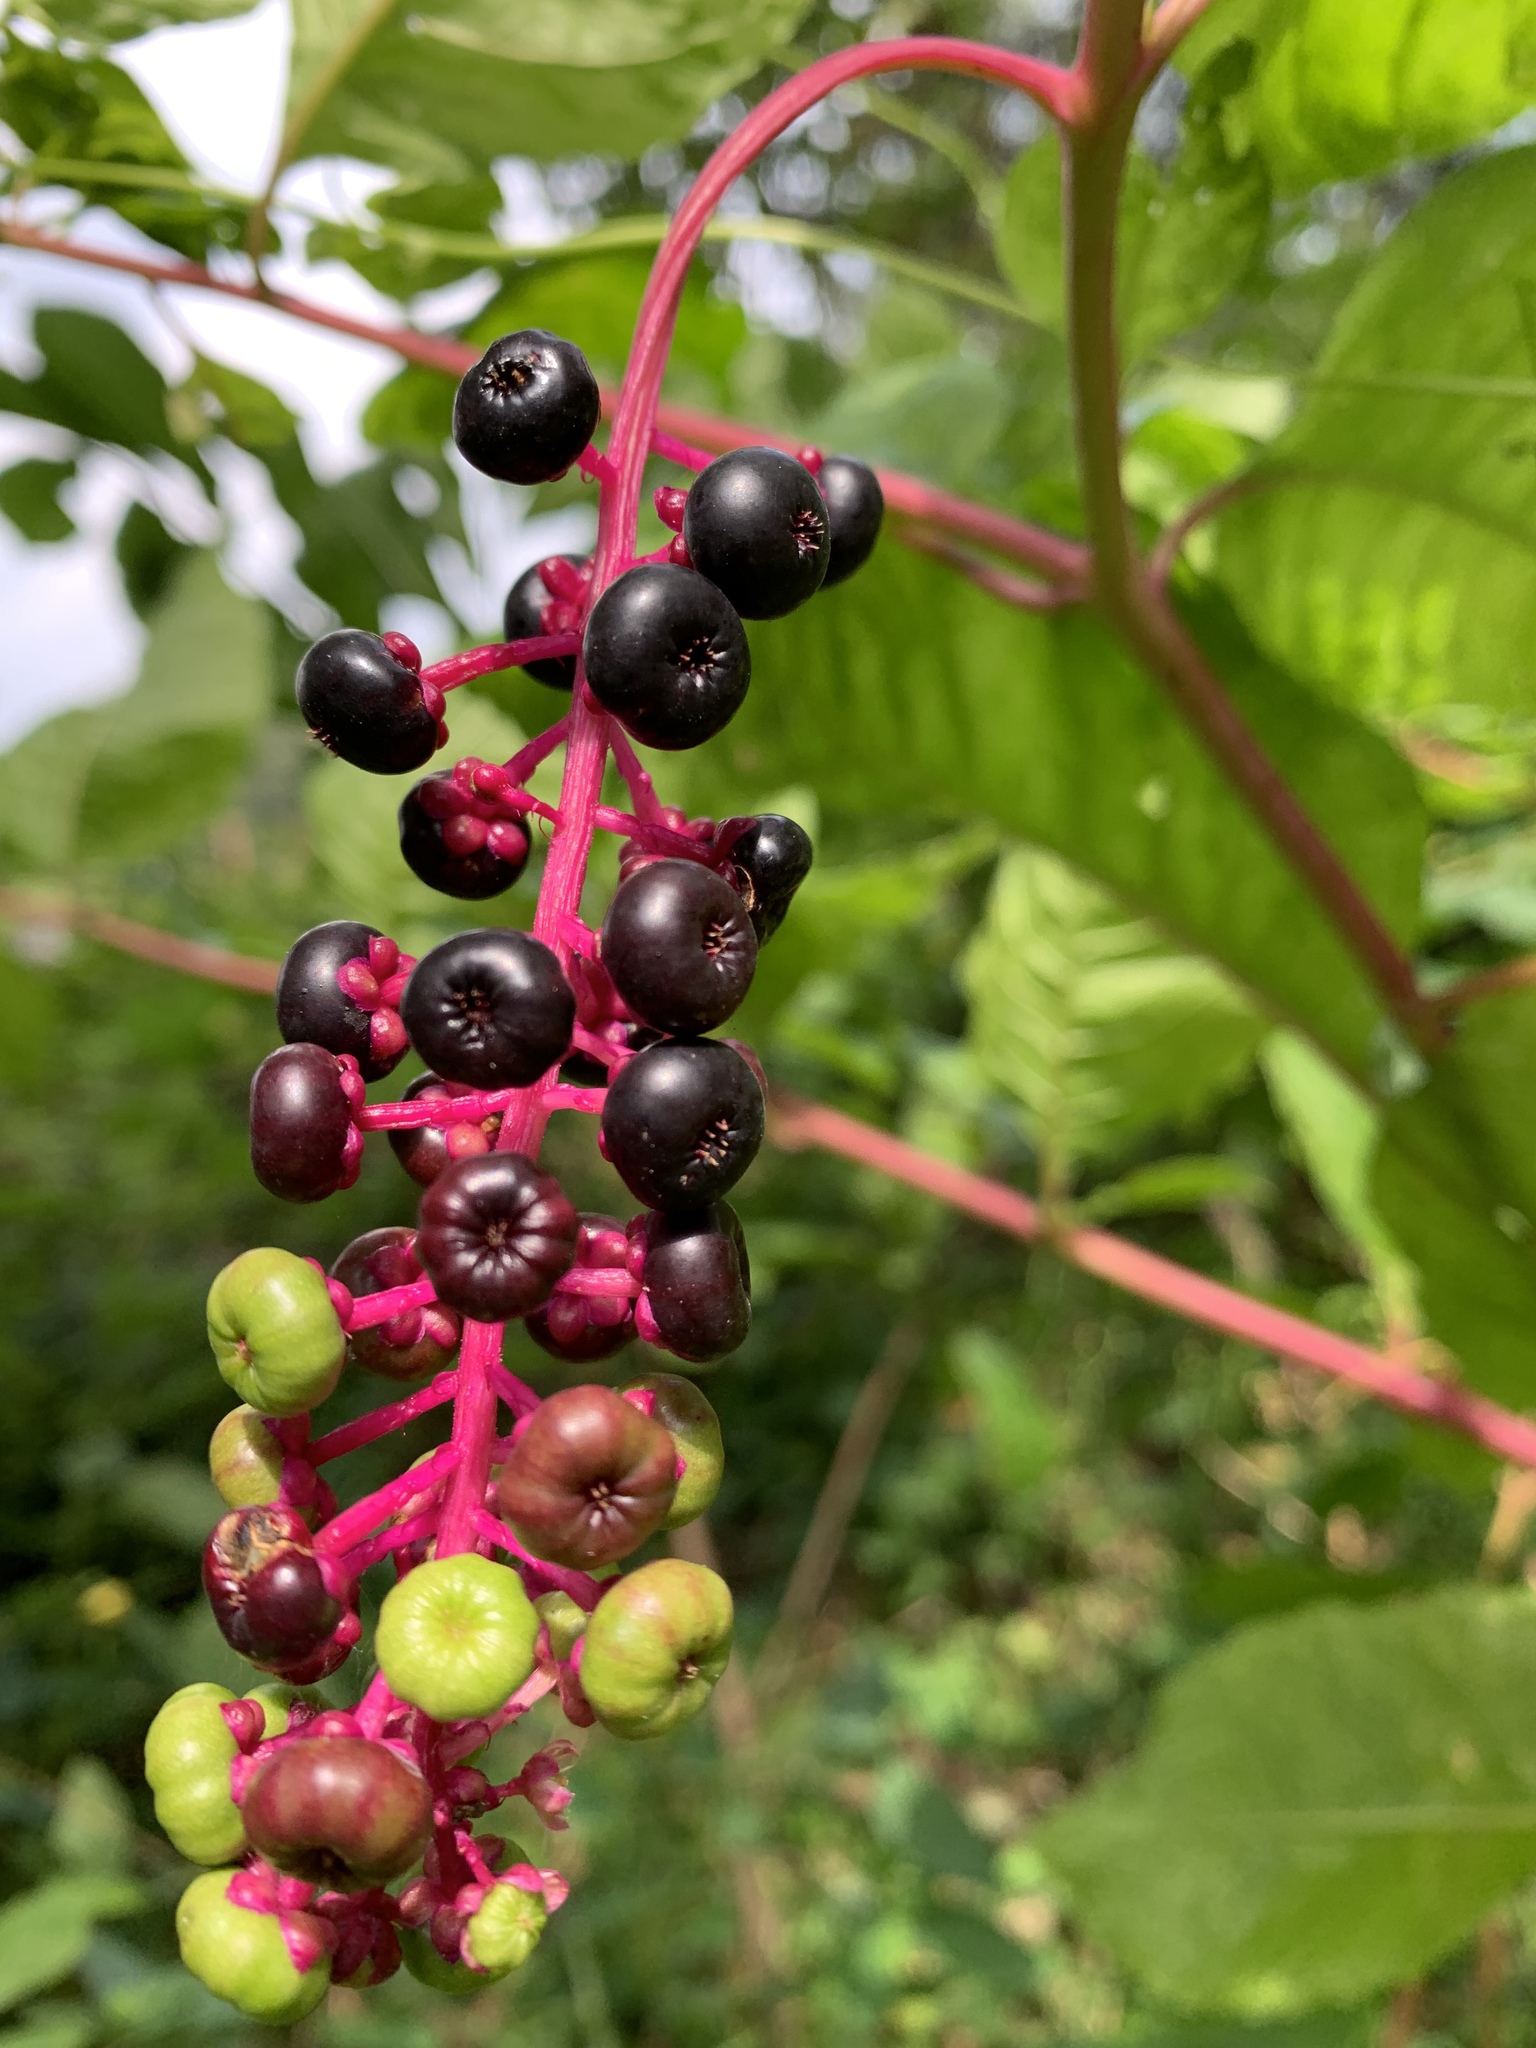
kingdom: Plantae
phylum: Tracheophyta
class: Magnoliopsida
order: Caryophyllales
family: Phytolaccaceae
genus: Phytolacca
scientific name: Phytolacca americana
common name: American pokeweed
